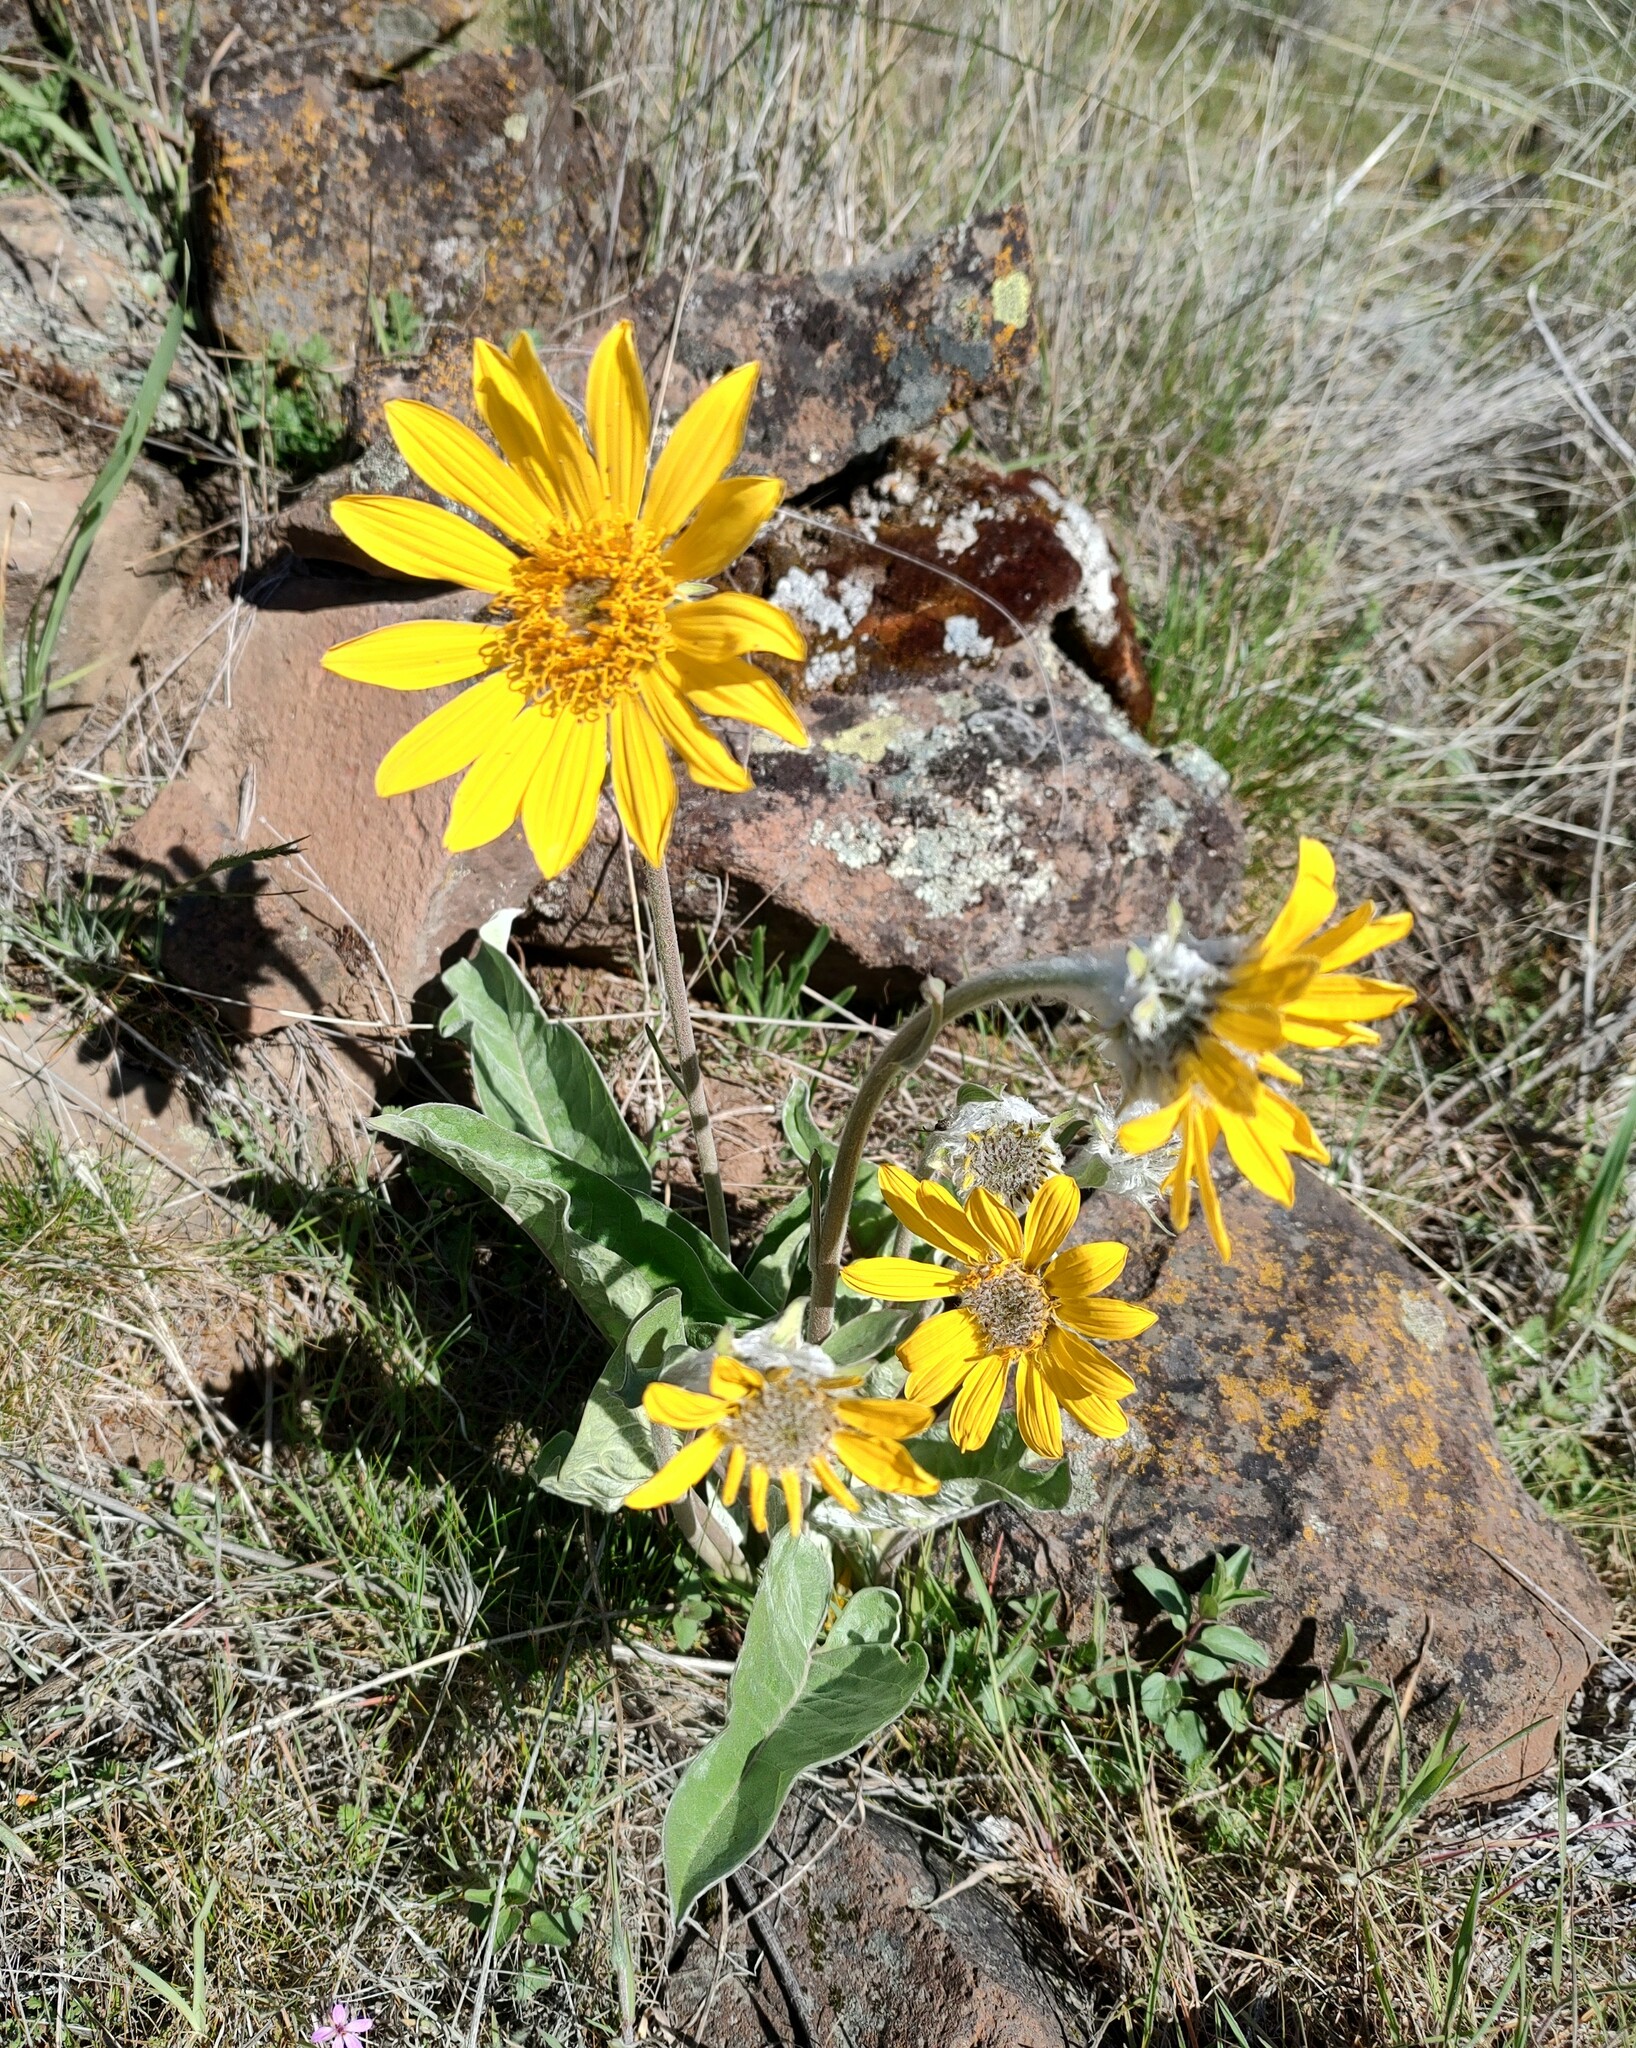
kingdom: Plantae
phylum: Tracheophyta
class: Magnoliopsida
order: Asterales
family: Asteraceae
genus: Wyethia
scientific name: Wyethia sagittata
